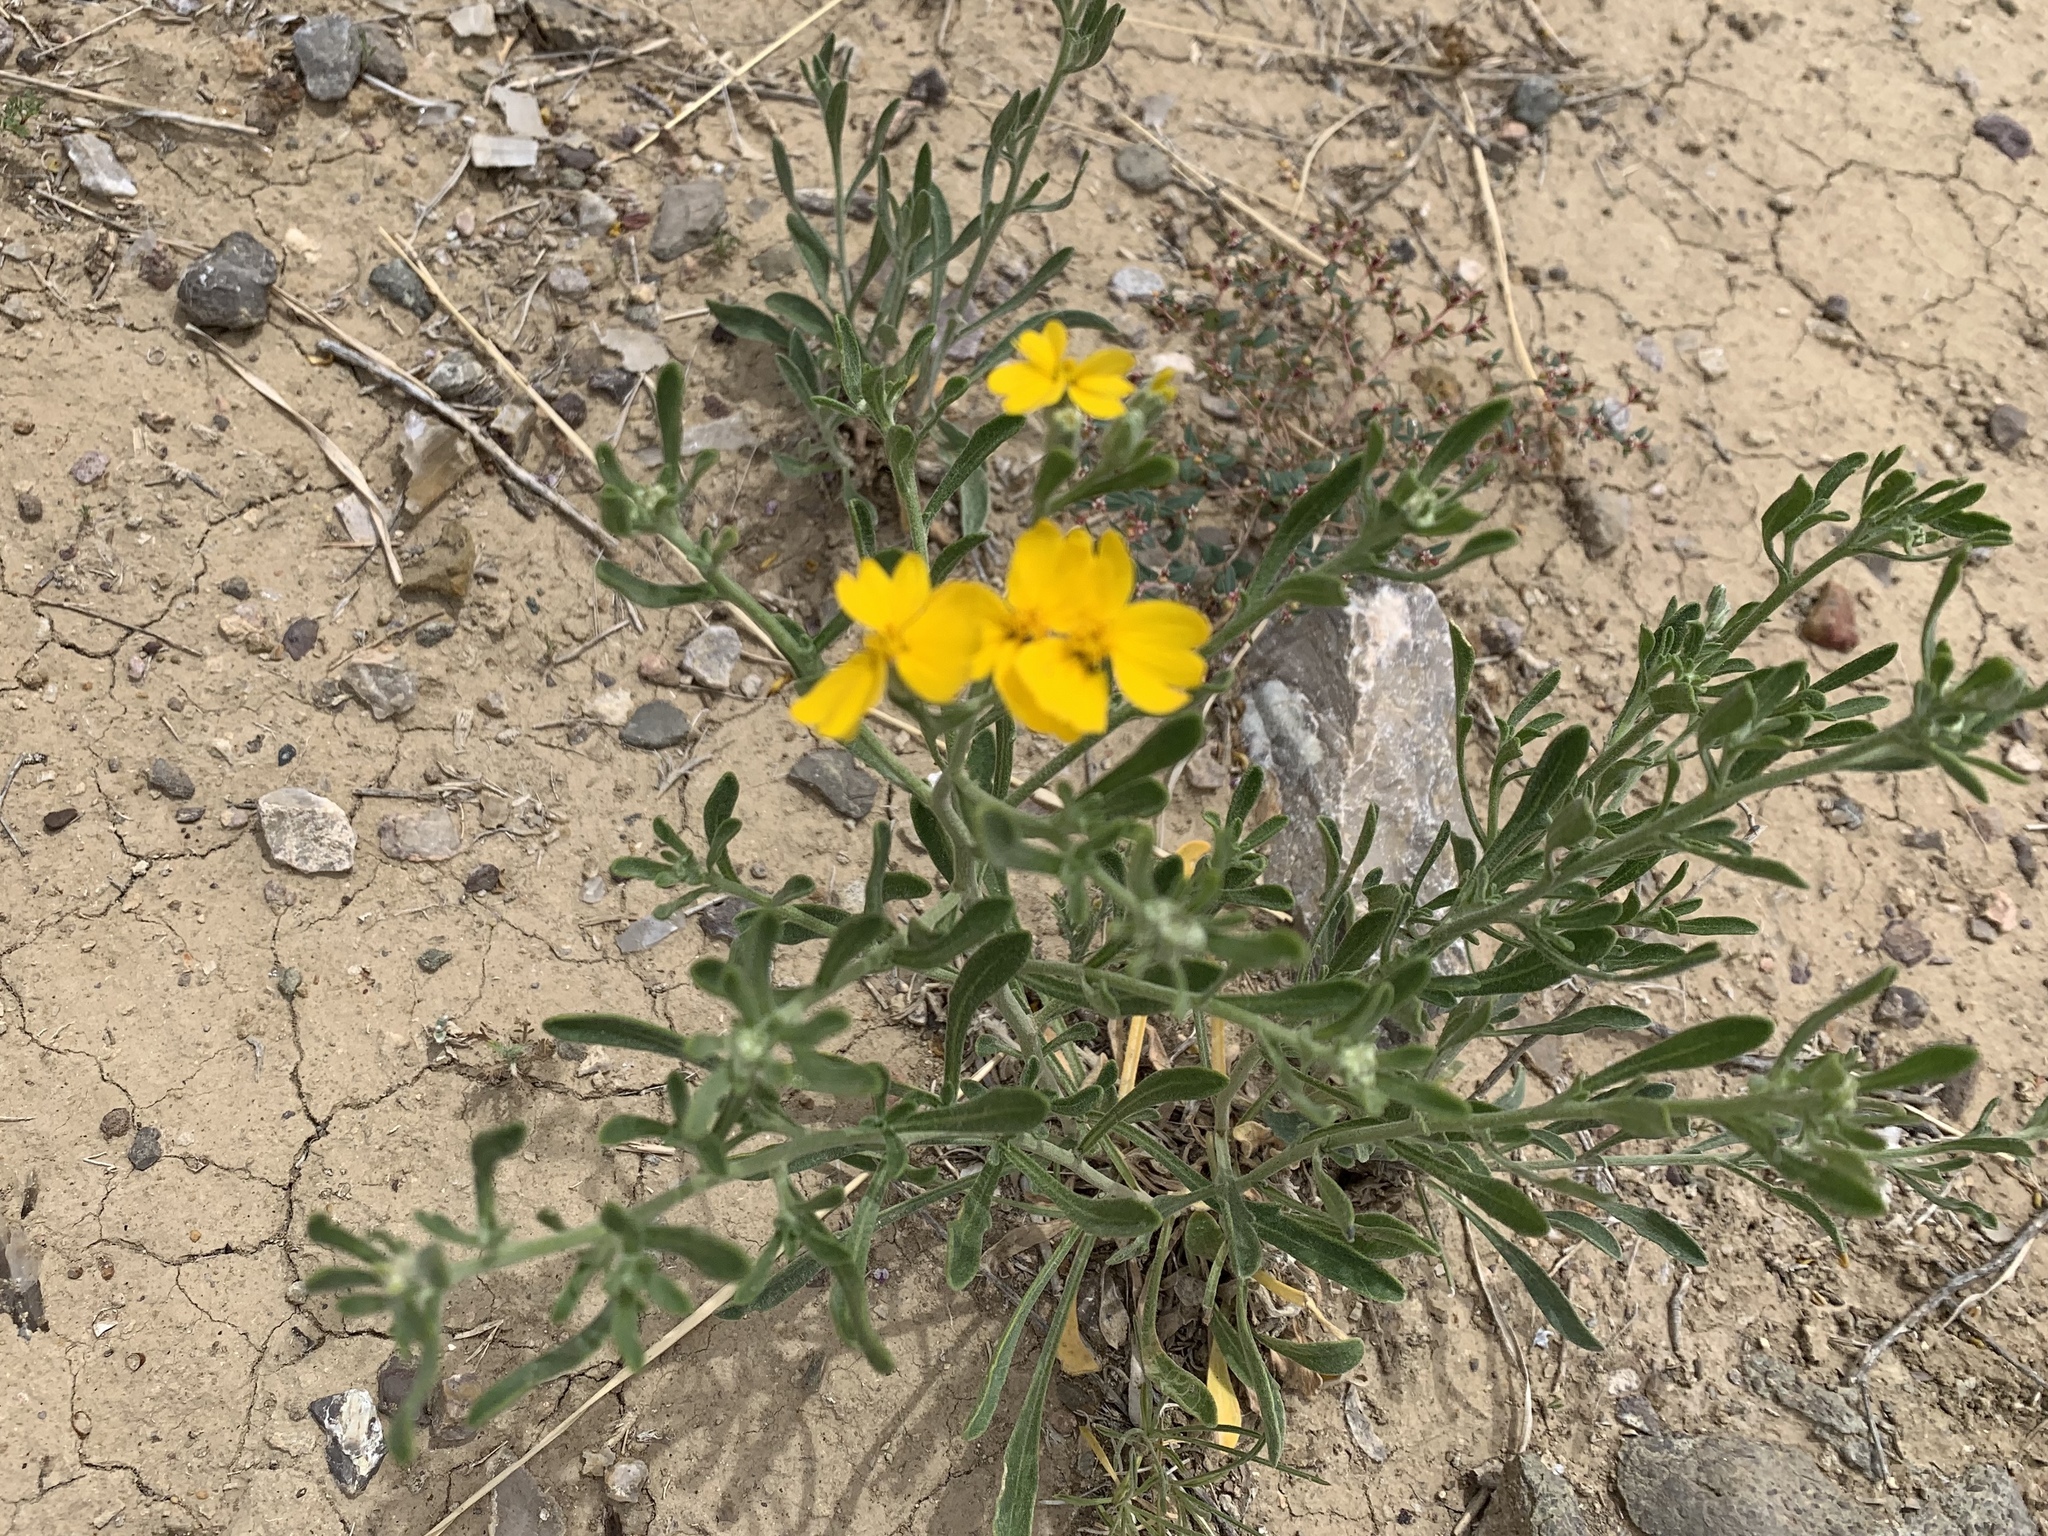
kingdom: Plantae
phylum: Tracheophyta
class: Magnoliopsida
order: Asterales
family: Asteraceae
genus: Psilostrophe
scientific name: Psilostrophe tagetina
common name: Marigold paper-flower
